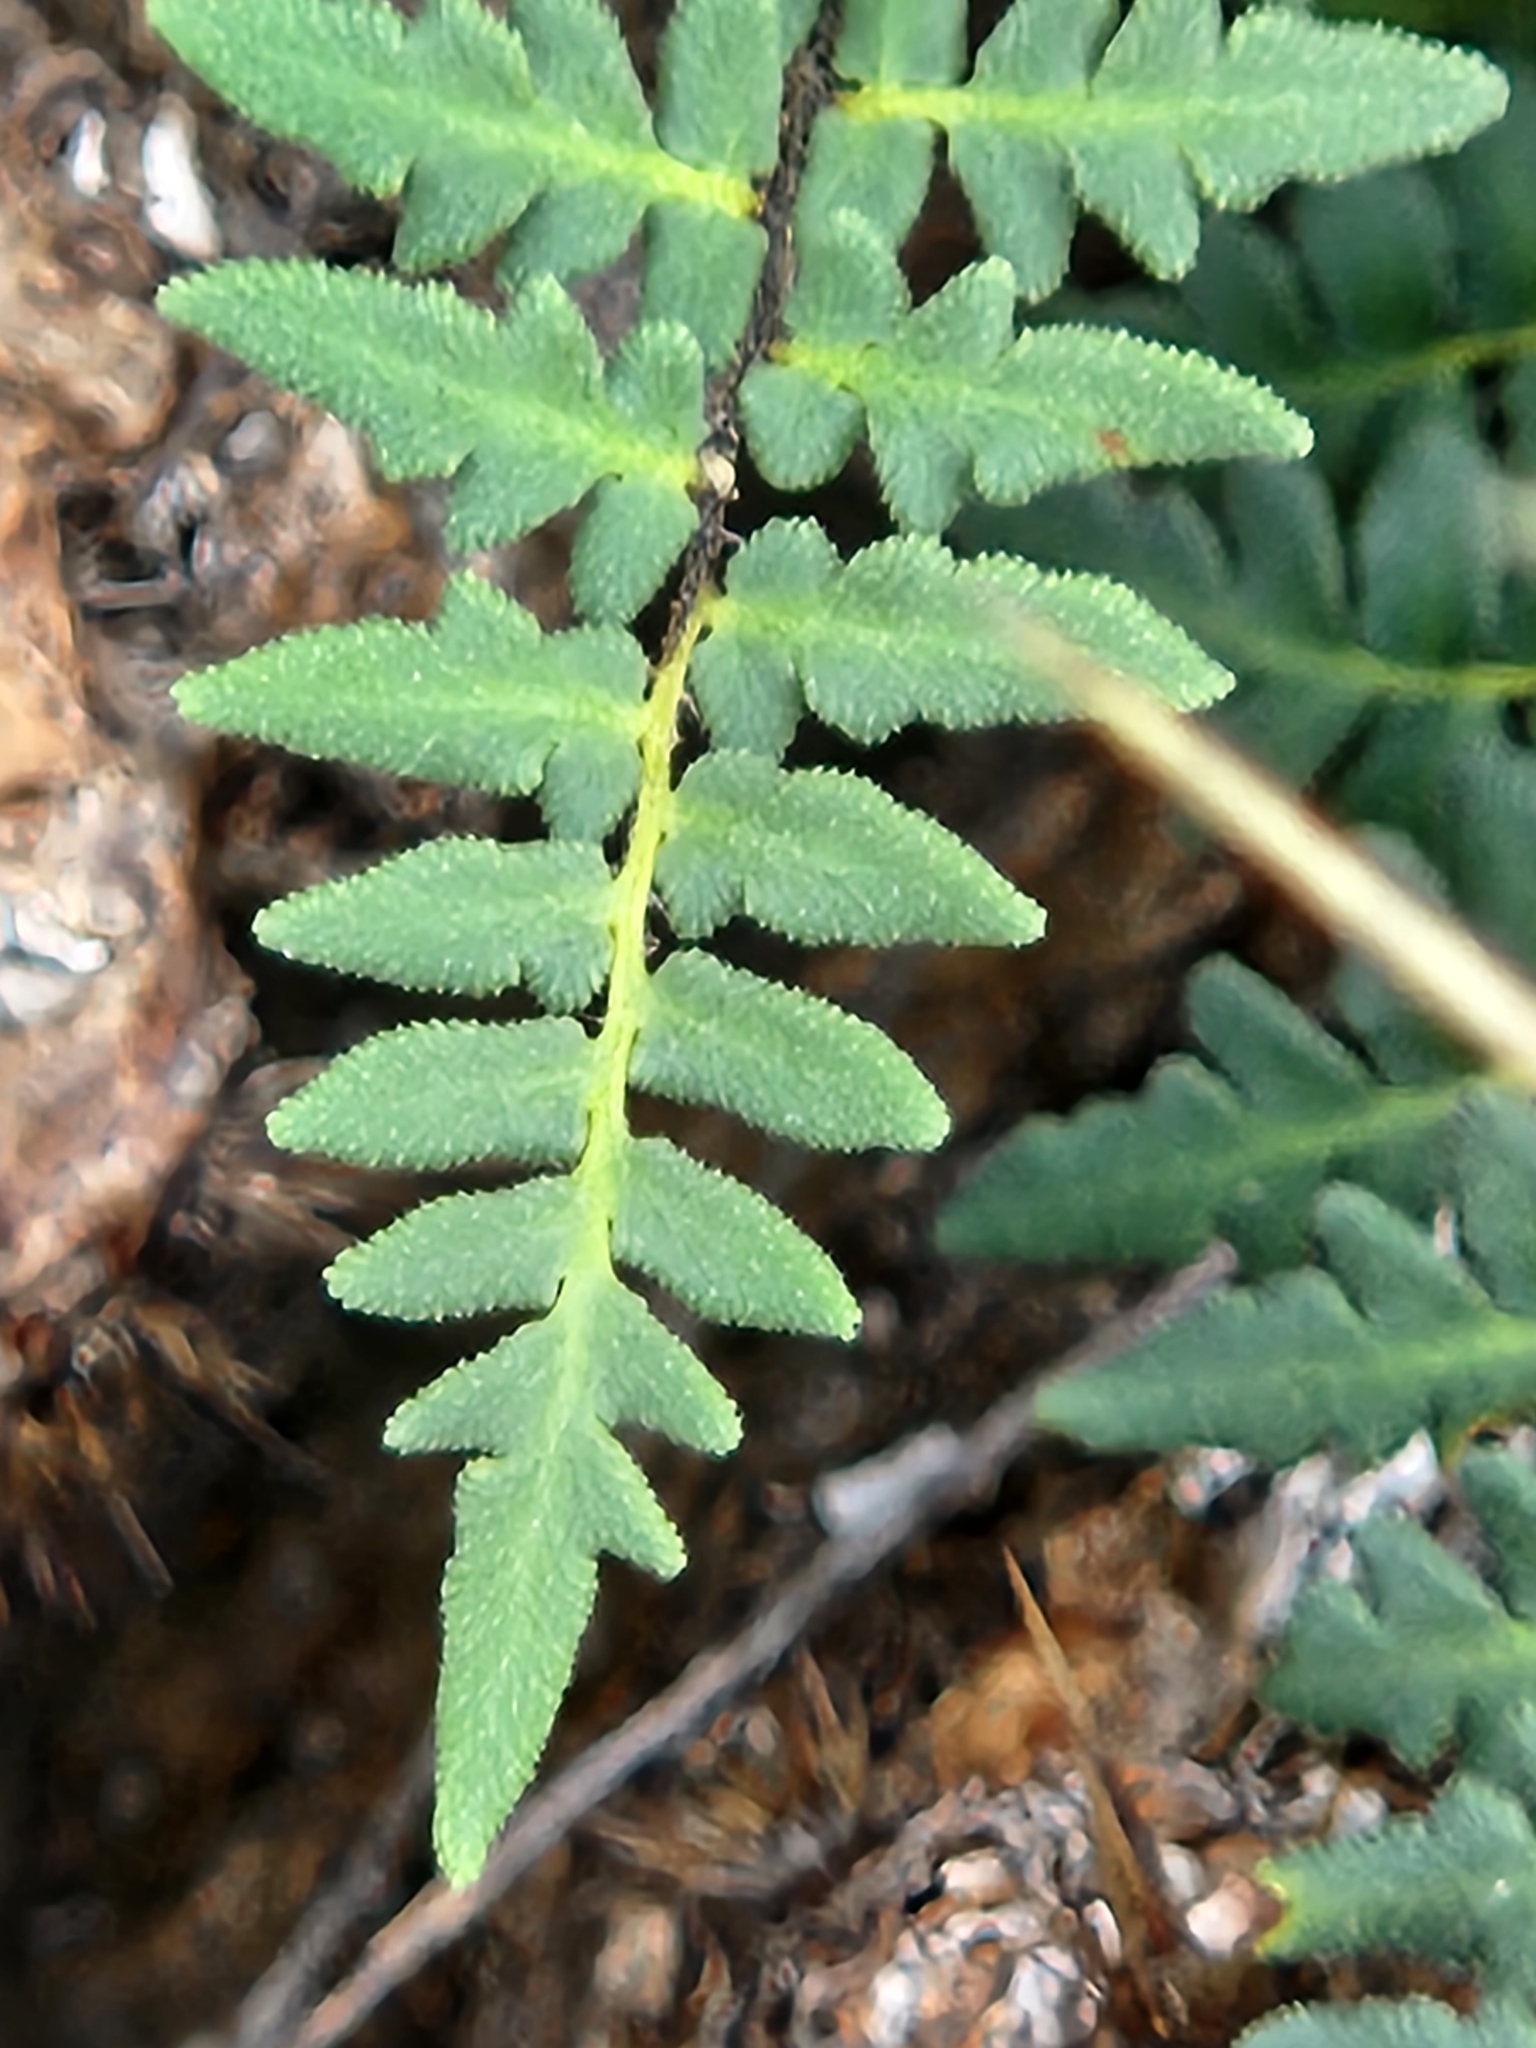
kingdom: Plantae
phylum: Tracheophyta
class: Polypodiopsida
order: Polypodiales
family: Pteridaceae
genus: Myriopteris
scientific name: Myriopteris scabra
